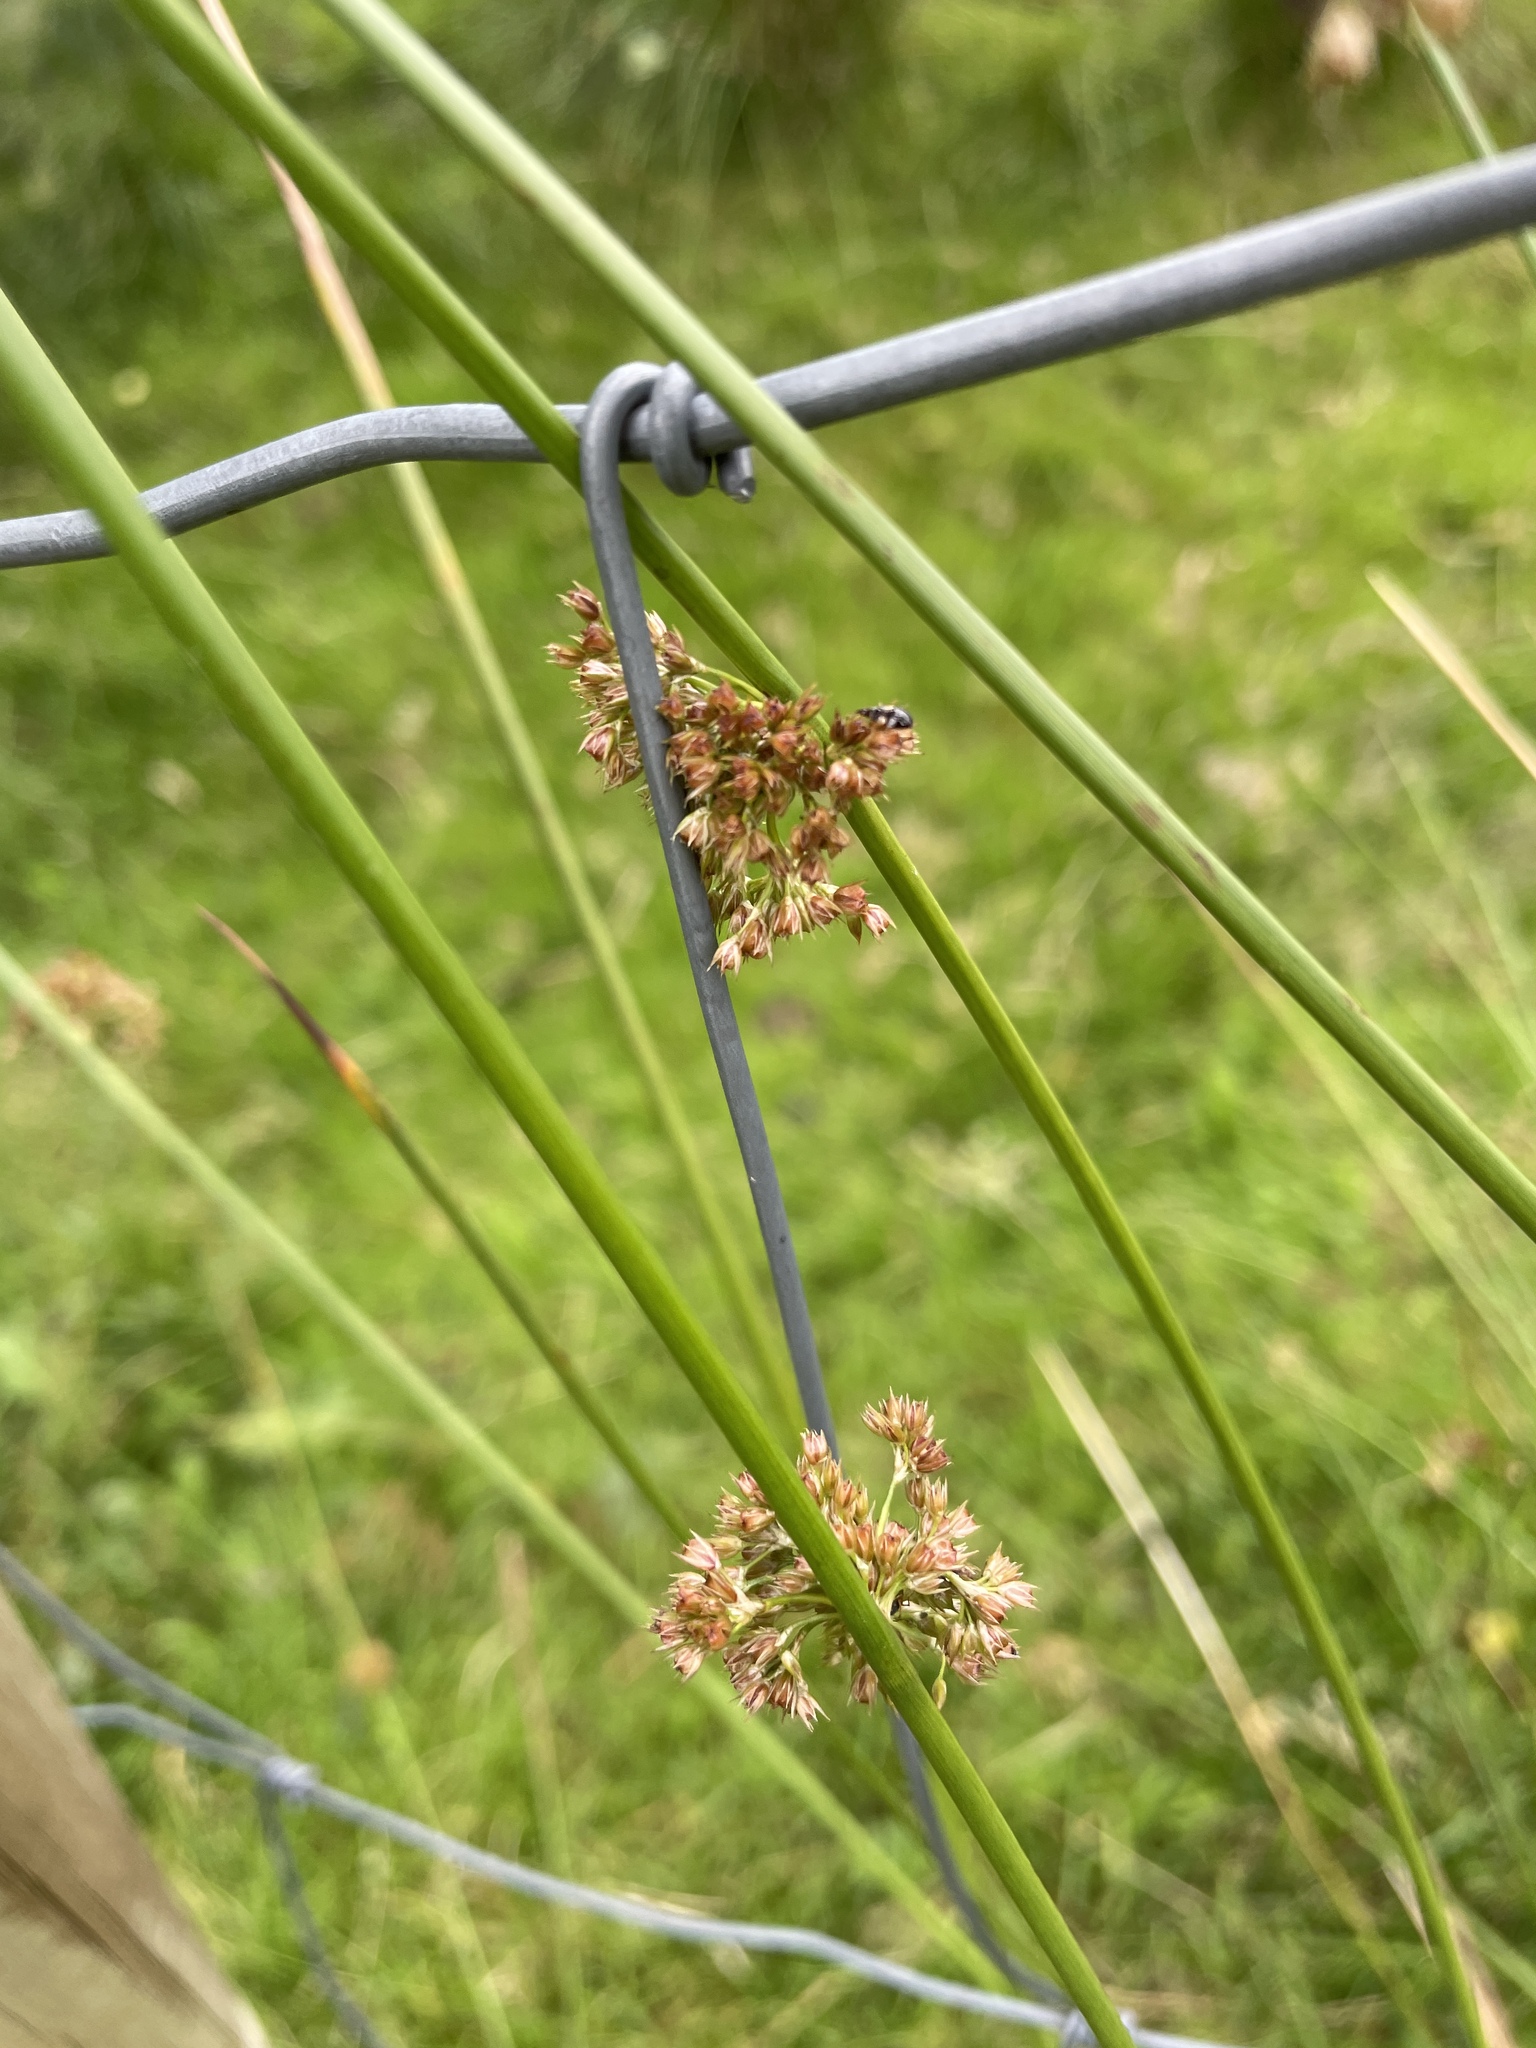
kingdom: Plantae
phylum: Tracheophyta
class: Liliopsida
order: Poales
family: Juncaceae
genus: Juncus
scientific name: Juncus effusus
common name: Soft rush
